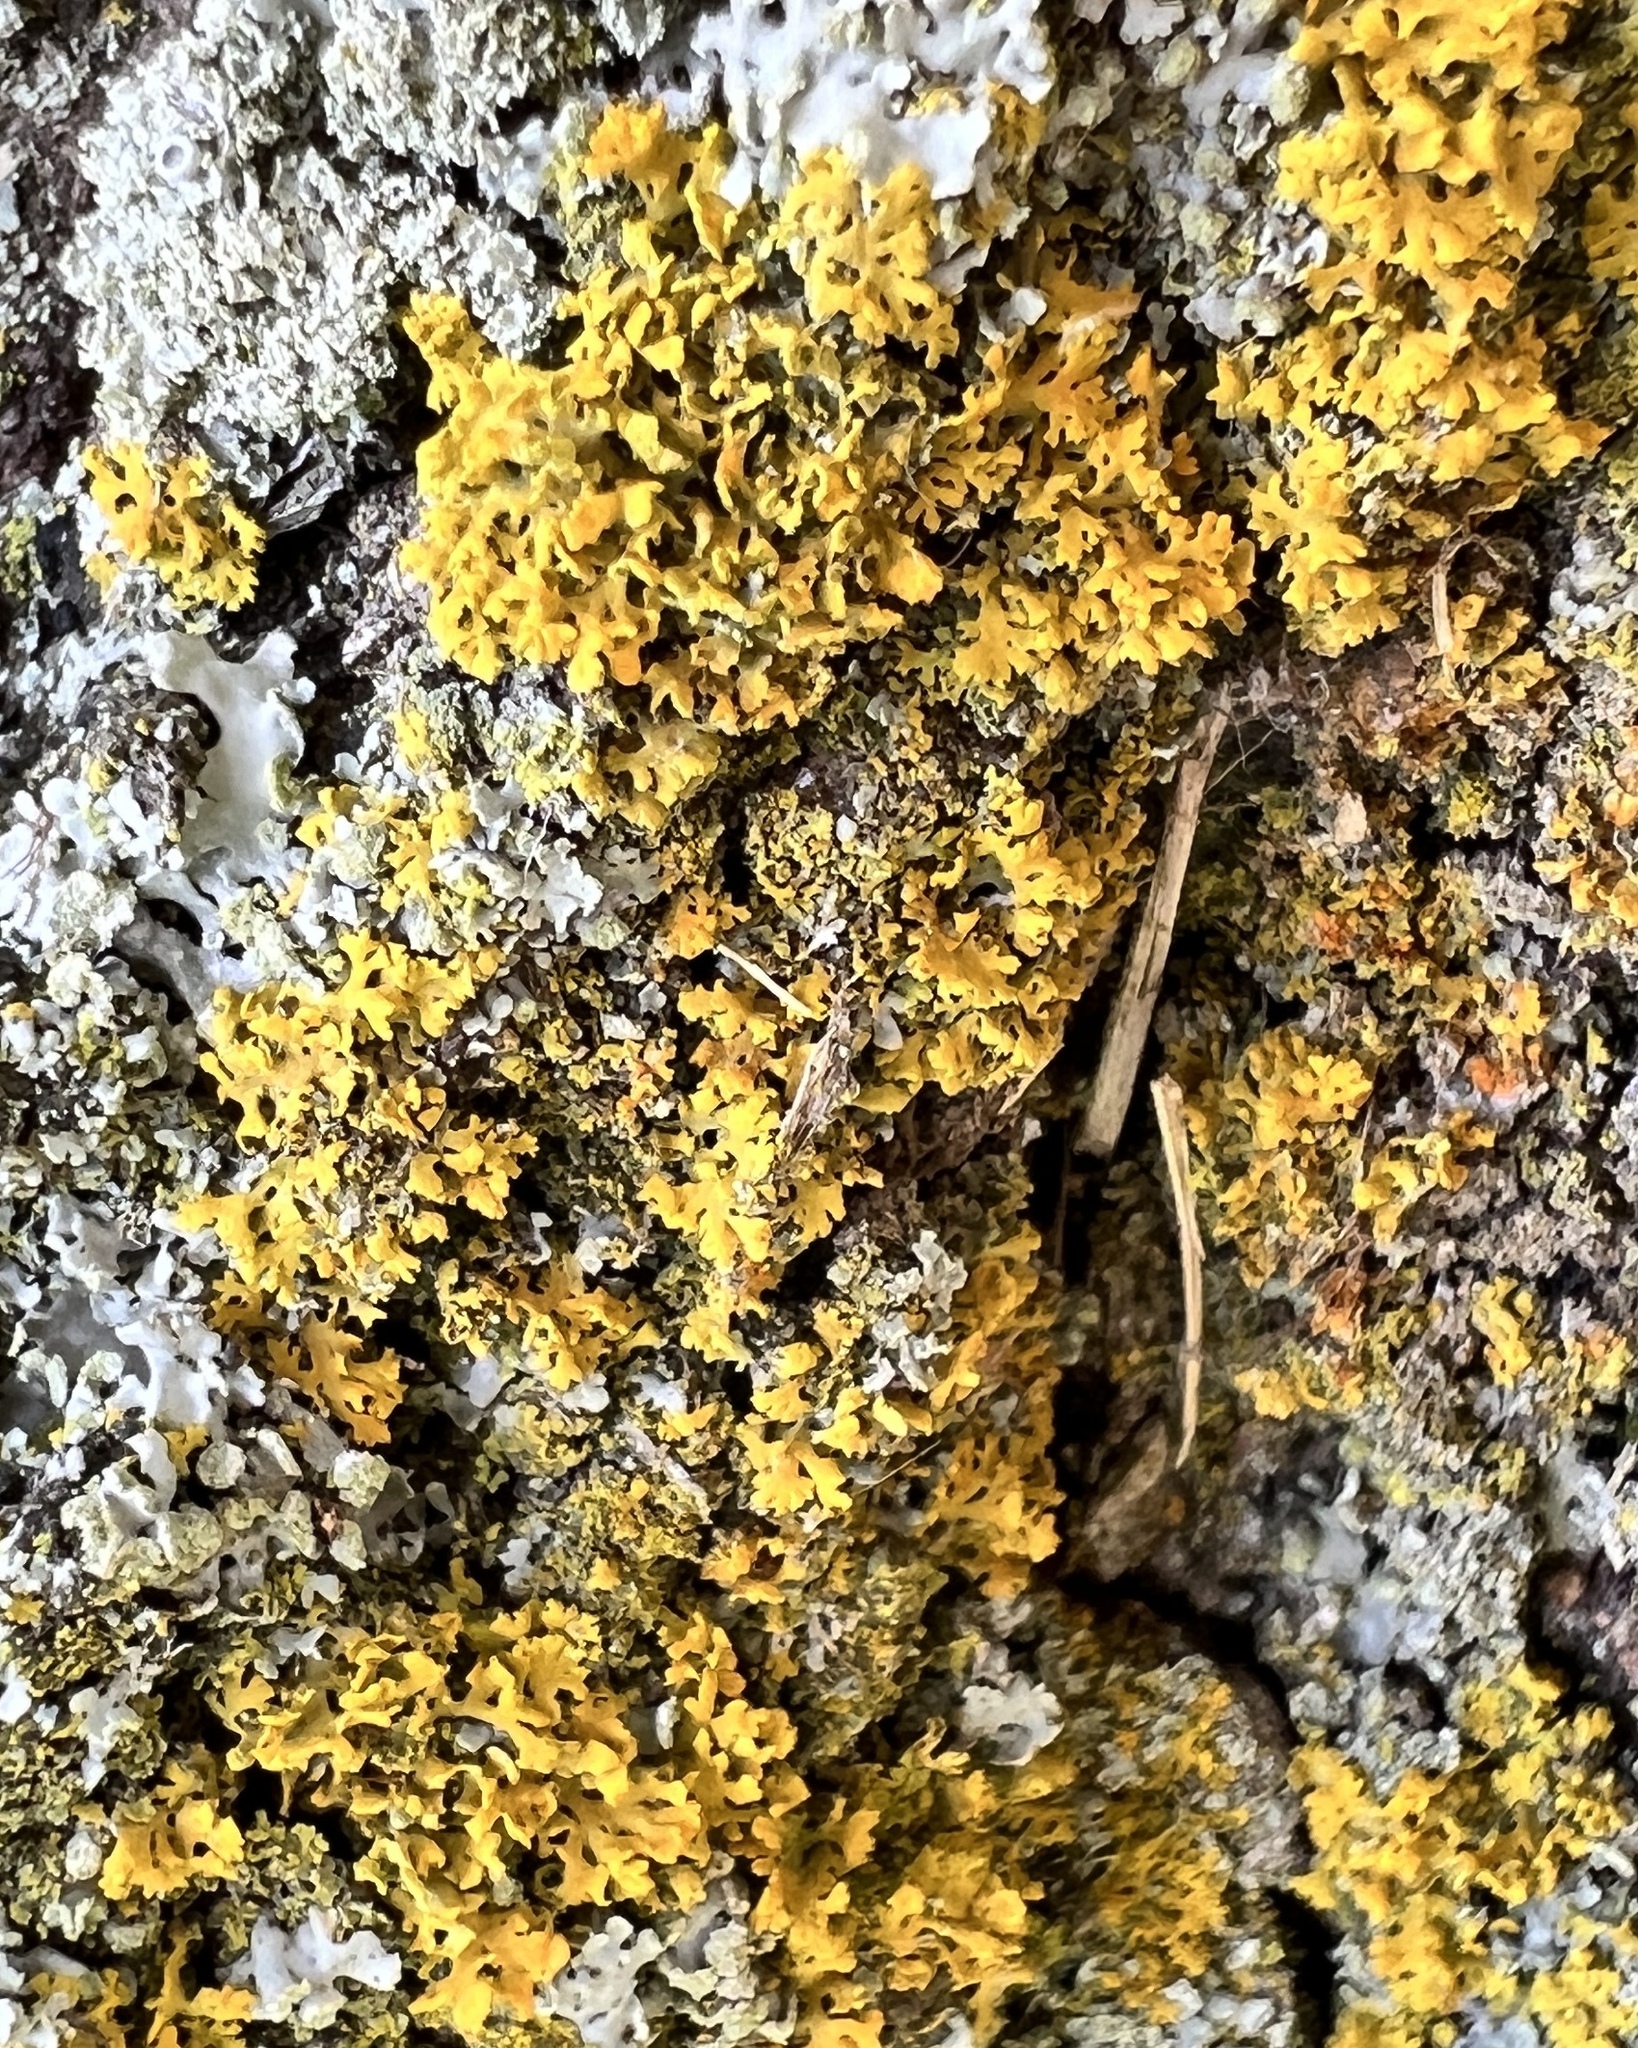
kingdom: Fungi
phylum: Ascomycota
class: Lecanoromycetes
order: Teloschistales
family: Teloschistaceae
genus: Gallowayella
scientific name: Gallowayella weberi
